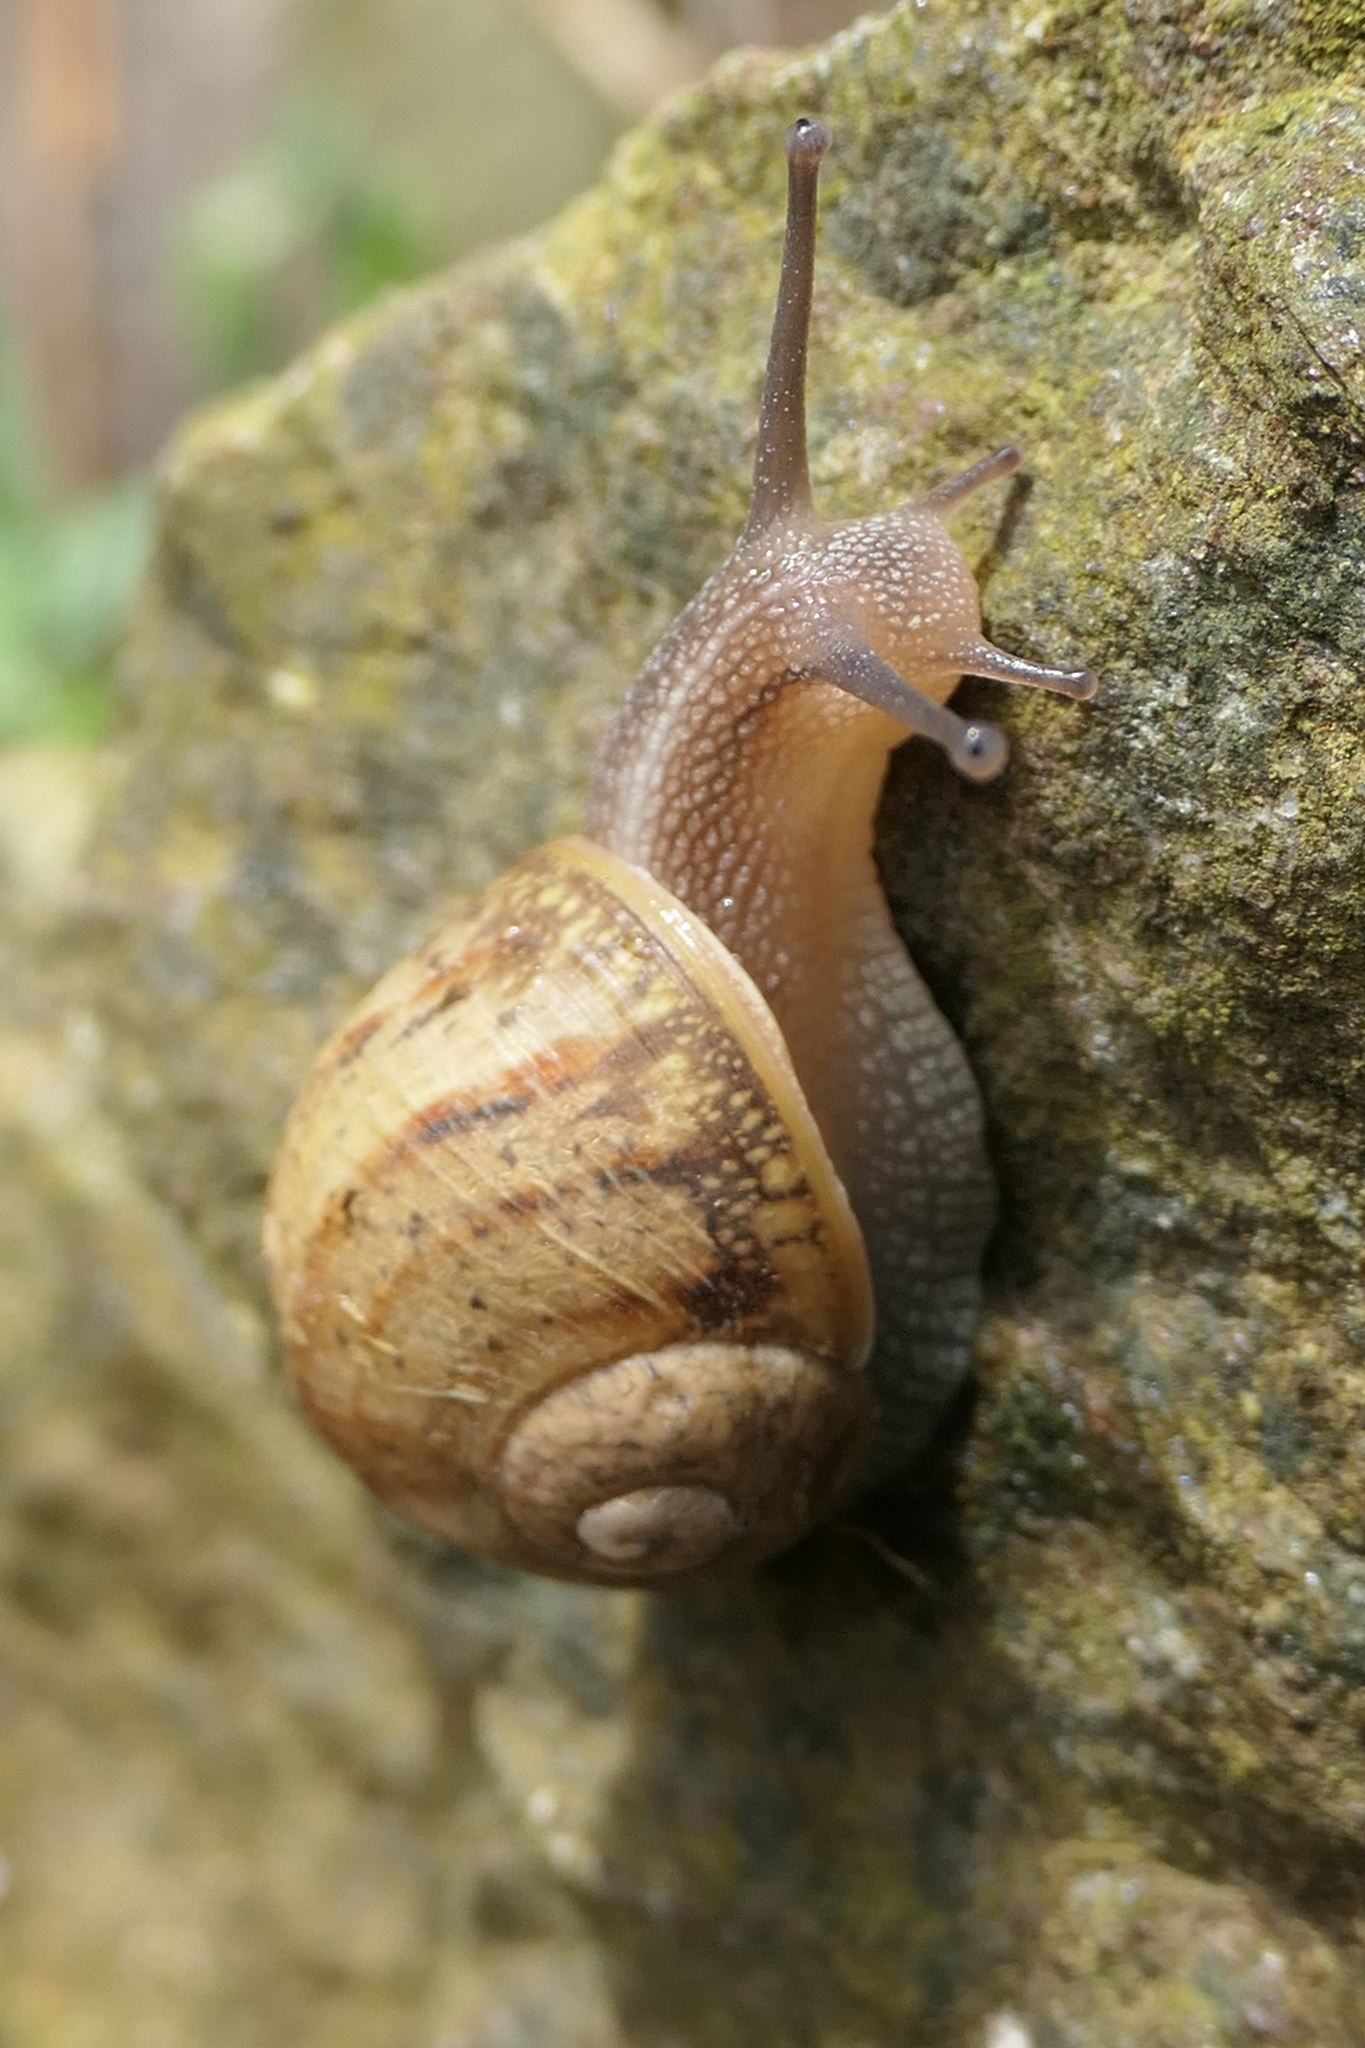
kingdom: Animalia
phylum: Mollusca
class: Gastropoda
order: Stylommatophora
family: Helicidae
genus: Cornu
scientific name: Cornu aspersum
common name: Brown garden snail
